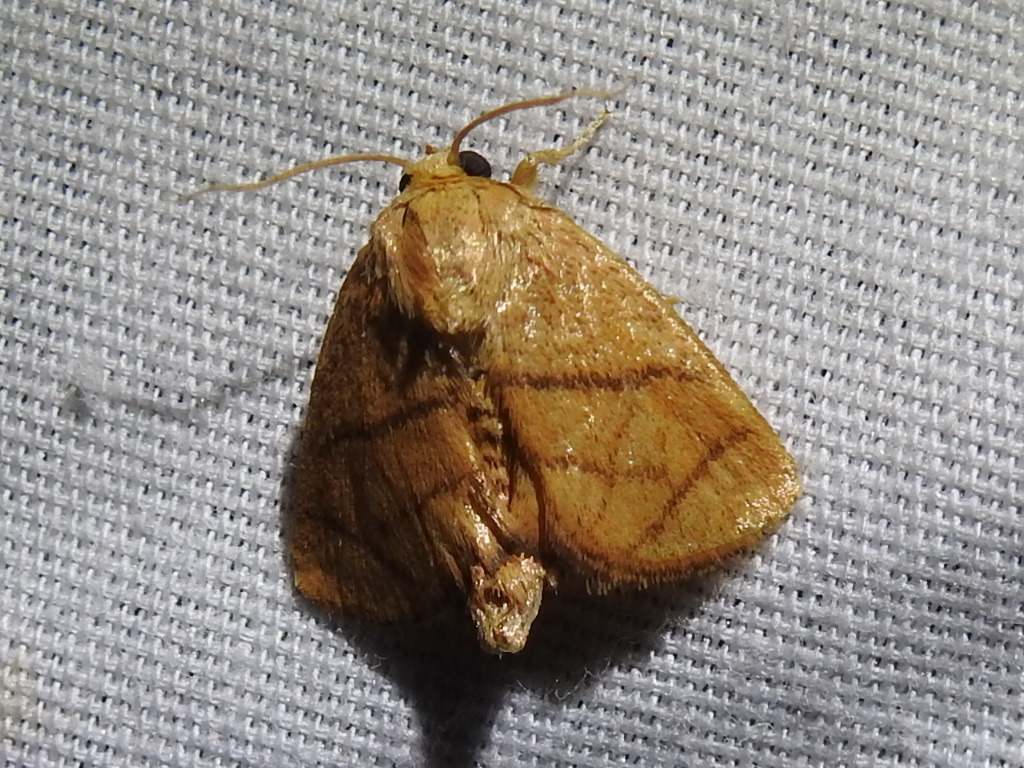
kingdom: Animalia
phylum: Arthropoda
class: Insecta
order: Lepidoptera
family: Limacodidae
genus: Apoda
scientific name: Apoda y-inversa
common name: Yellow-collared slug moth
